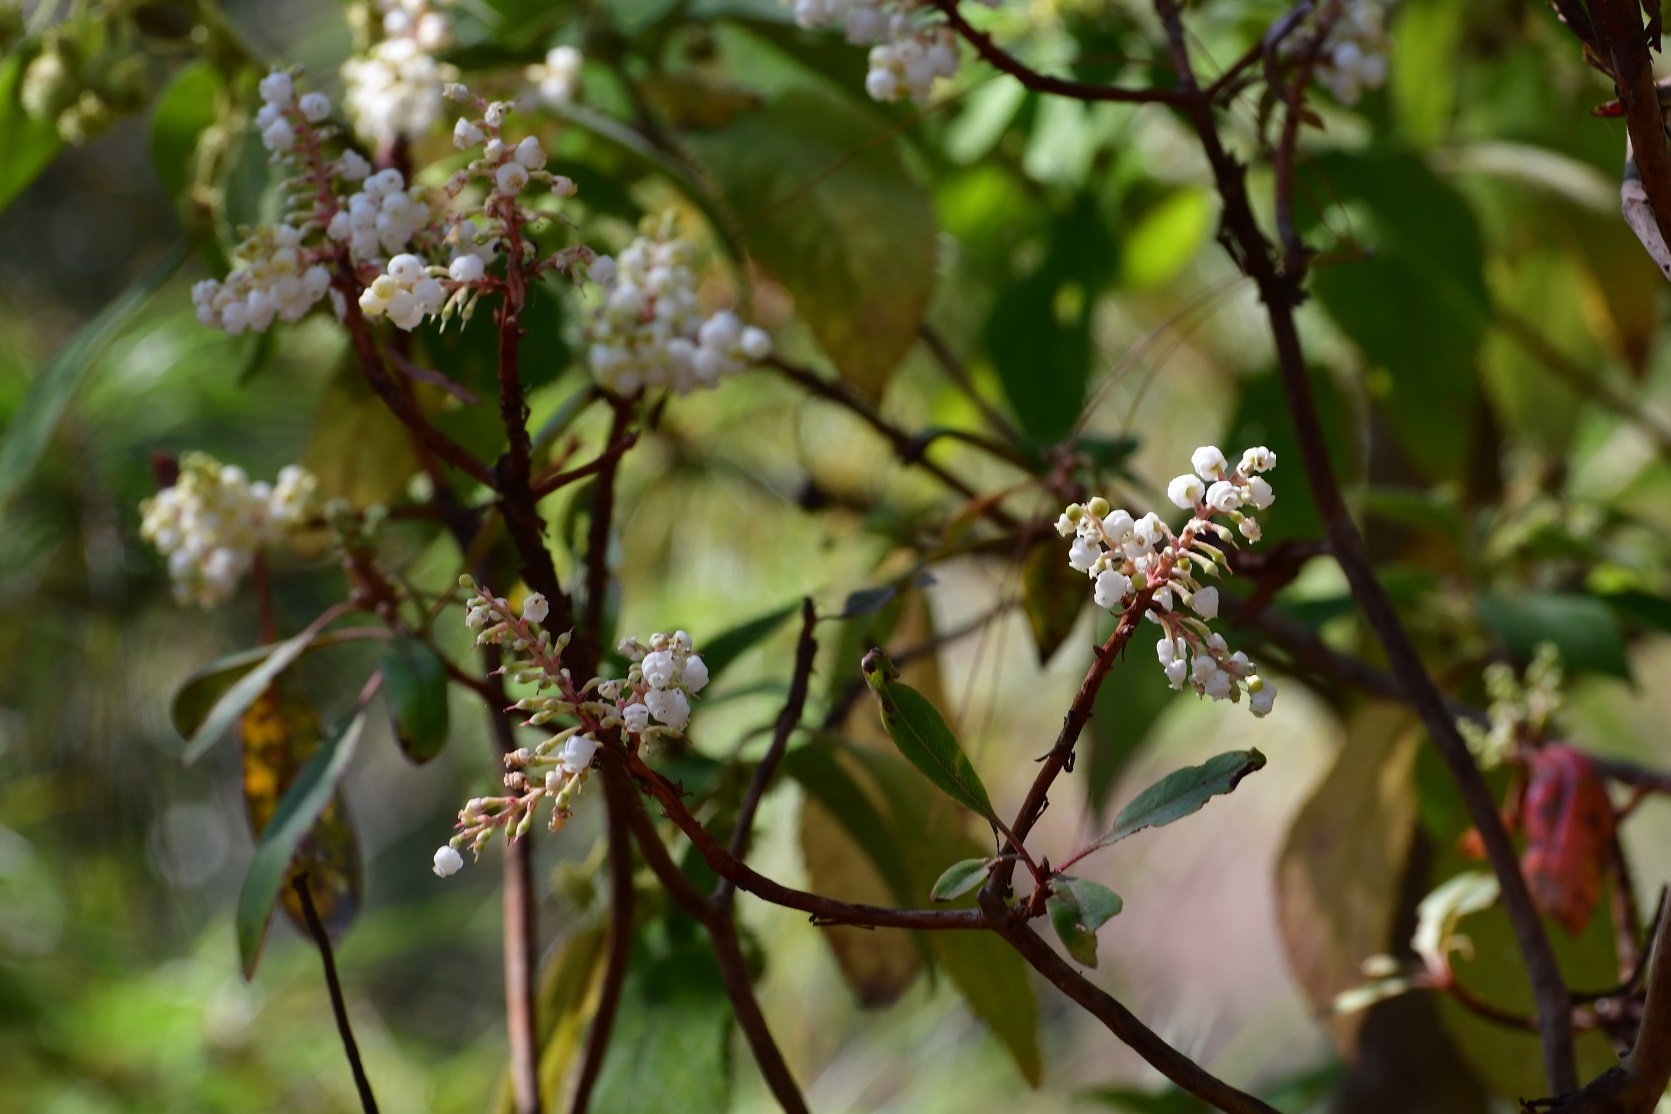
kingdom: Plantae
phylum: Tracheophyta
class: Magnoliopsida
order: Ericales
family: Ericaceae
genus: Arbutus
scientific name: Arbutus xalapensis
